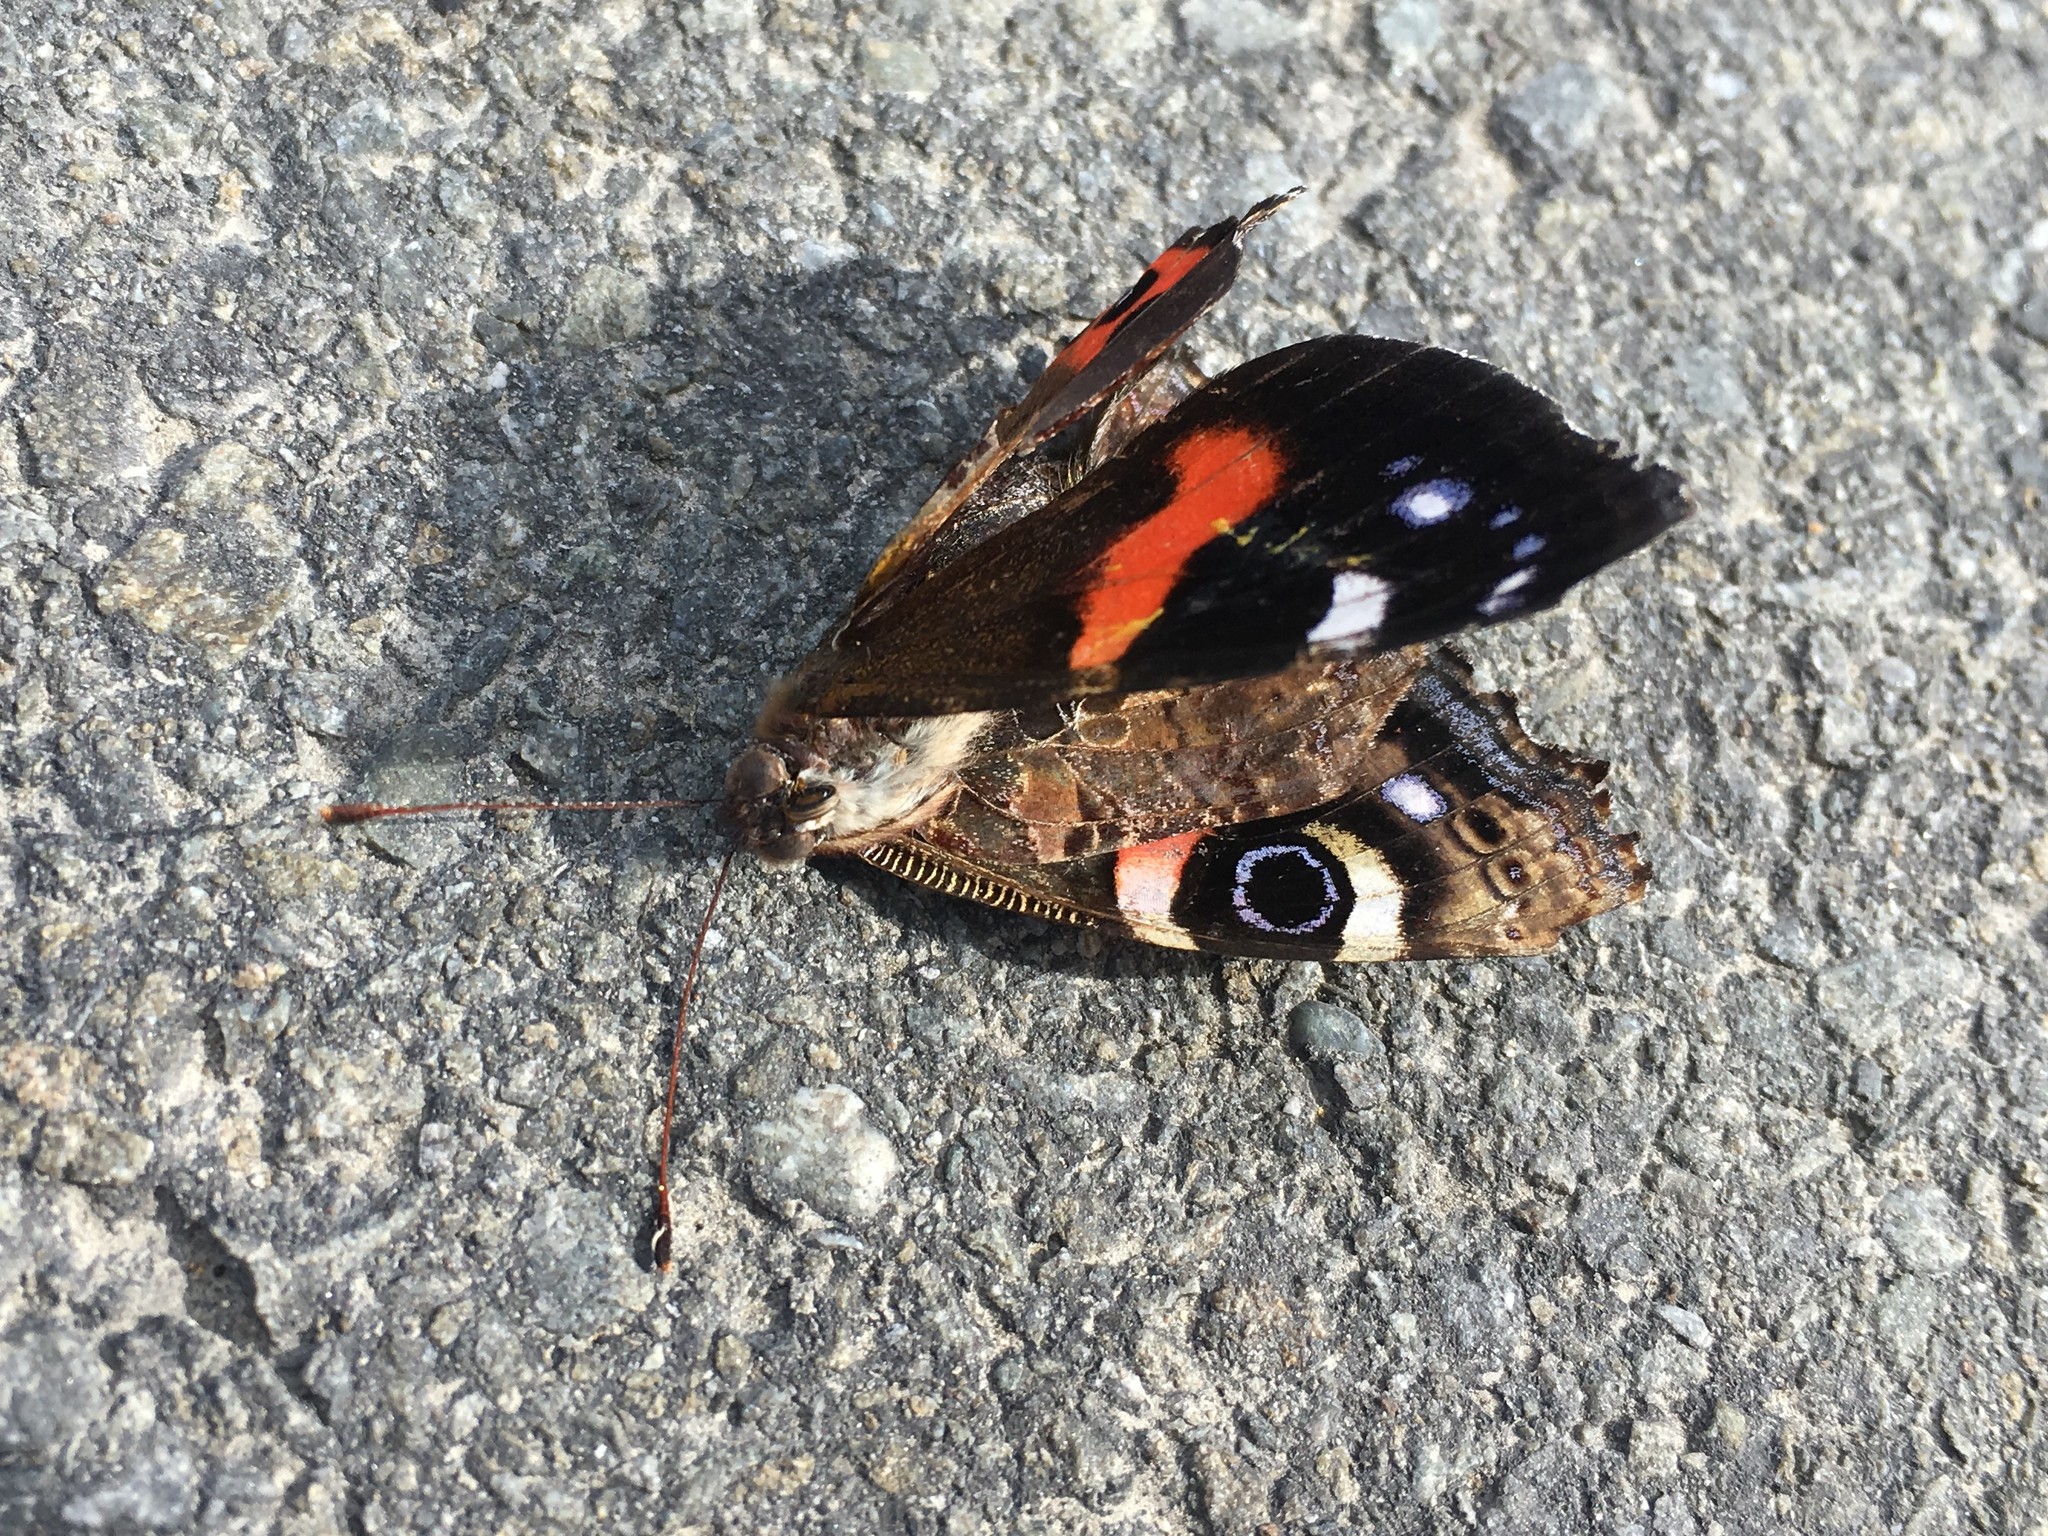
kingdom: Animalia
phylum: Arthropoda
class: Insecta
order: Lepidoptera
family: Nymphalidae
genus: Vanessa
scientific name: Vanessa gonerilla
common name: New zealand red admiral
